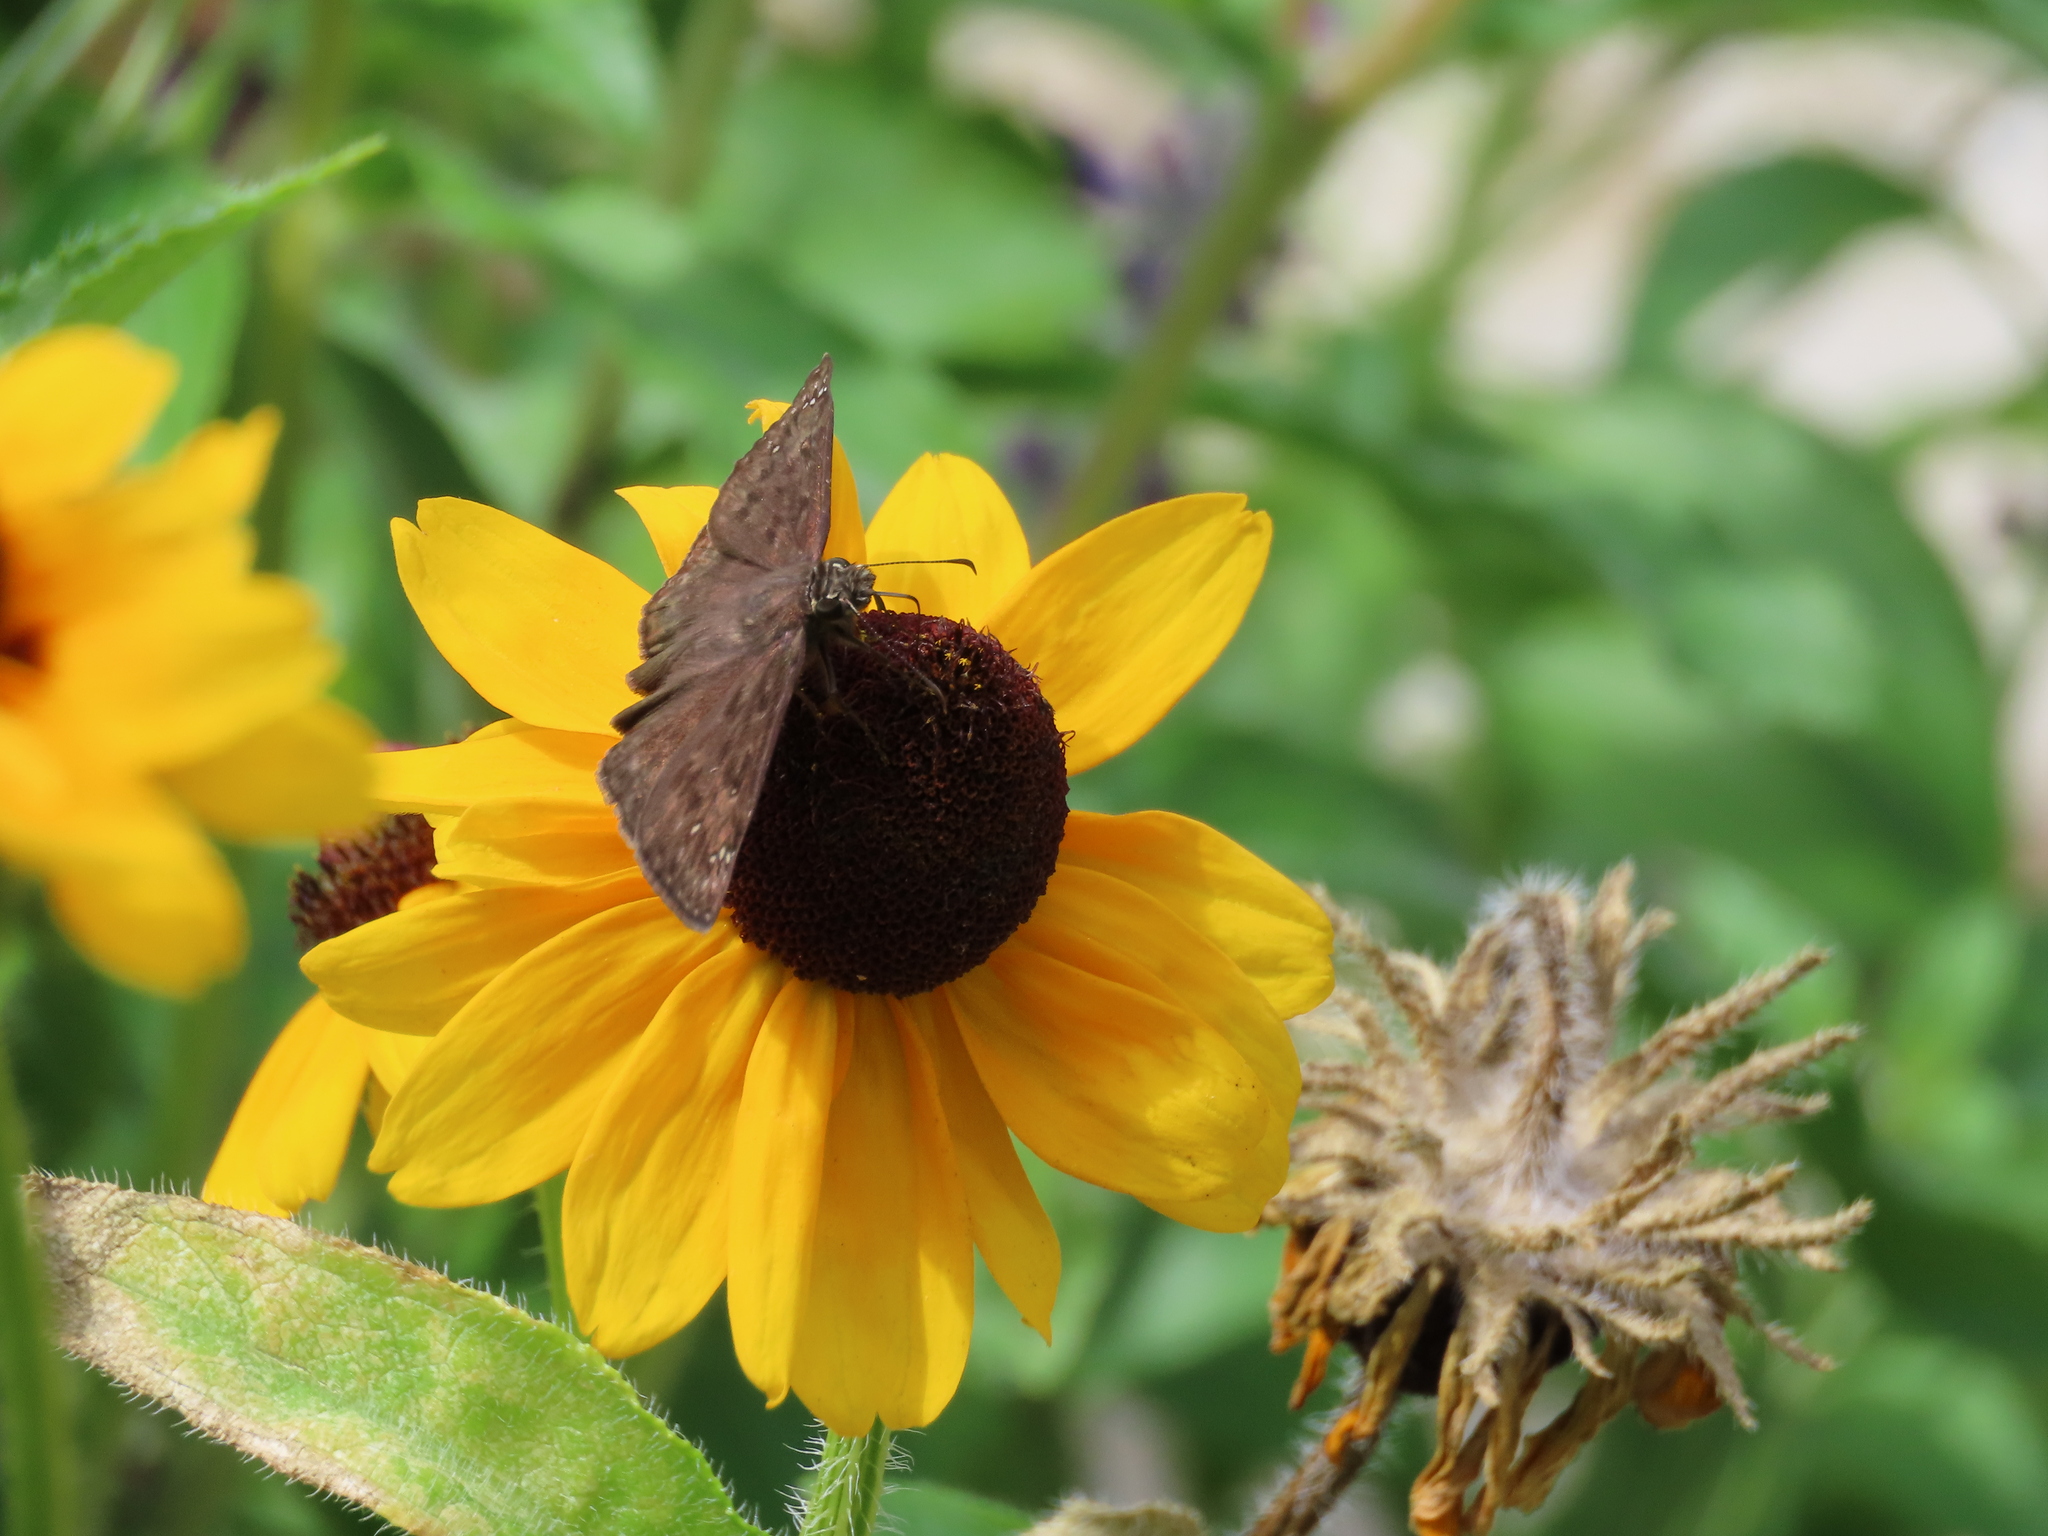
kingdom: Animalia
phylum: Arthropoda
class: Insecta
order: Lepidoptera
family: Hesperiidae
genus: Erynnis
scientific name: Erynnis horatius
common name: Horace's duskywing
